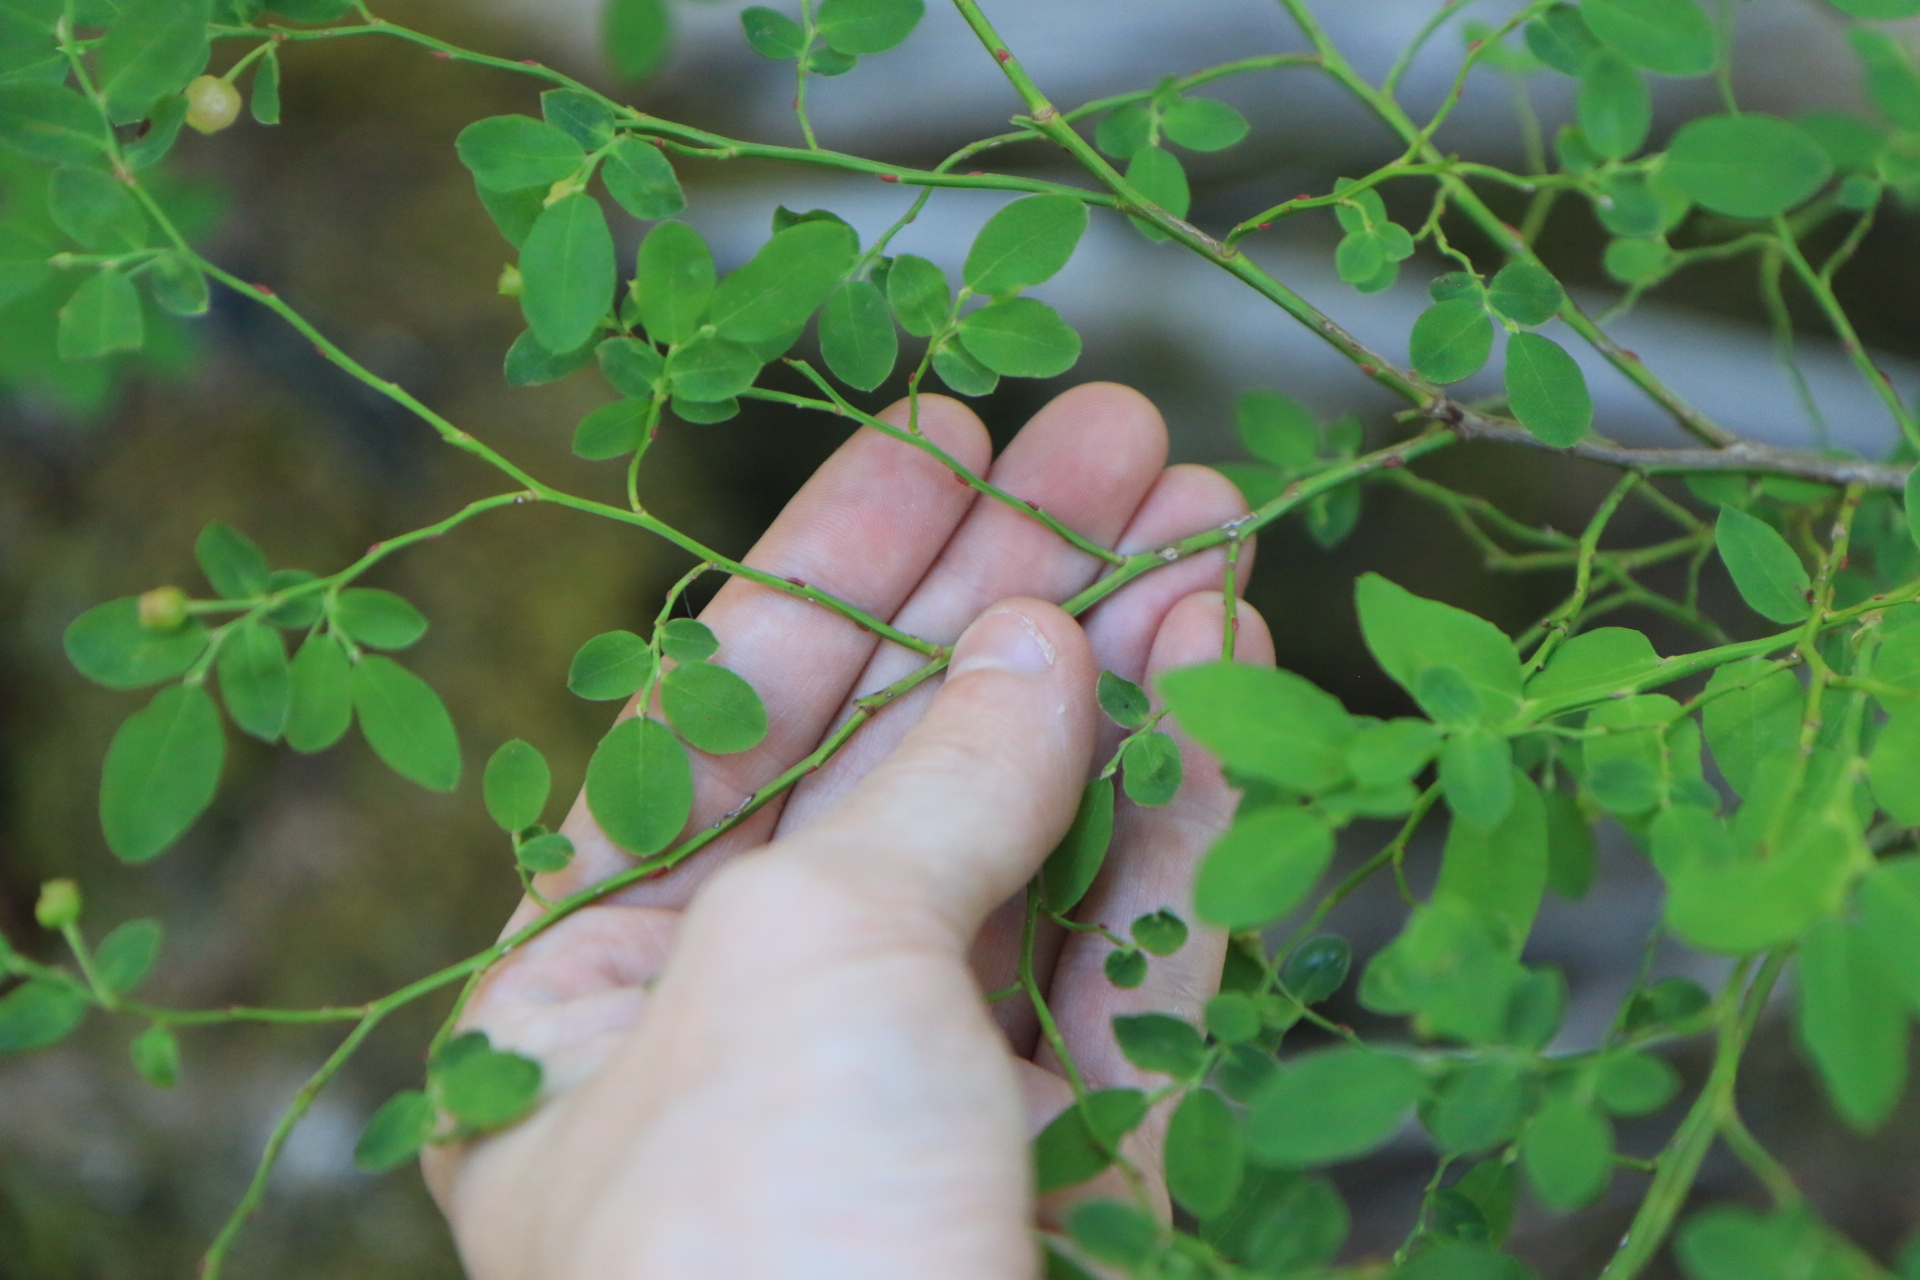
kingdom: Plantae
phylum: Tracheophyta
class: Magnoliopsida
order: Ericales
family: Ericaceae
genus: Vaccinium
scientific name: Vaccinium parvifolium
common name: Red-huckleberry
